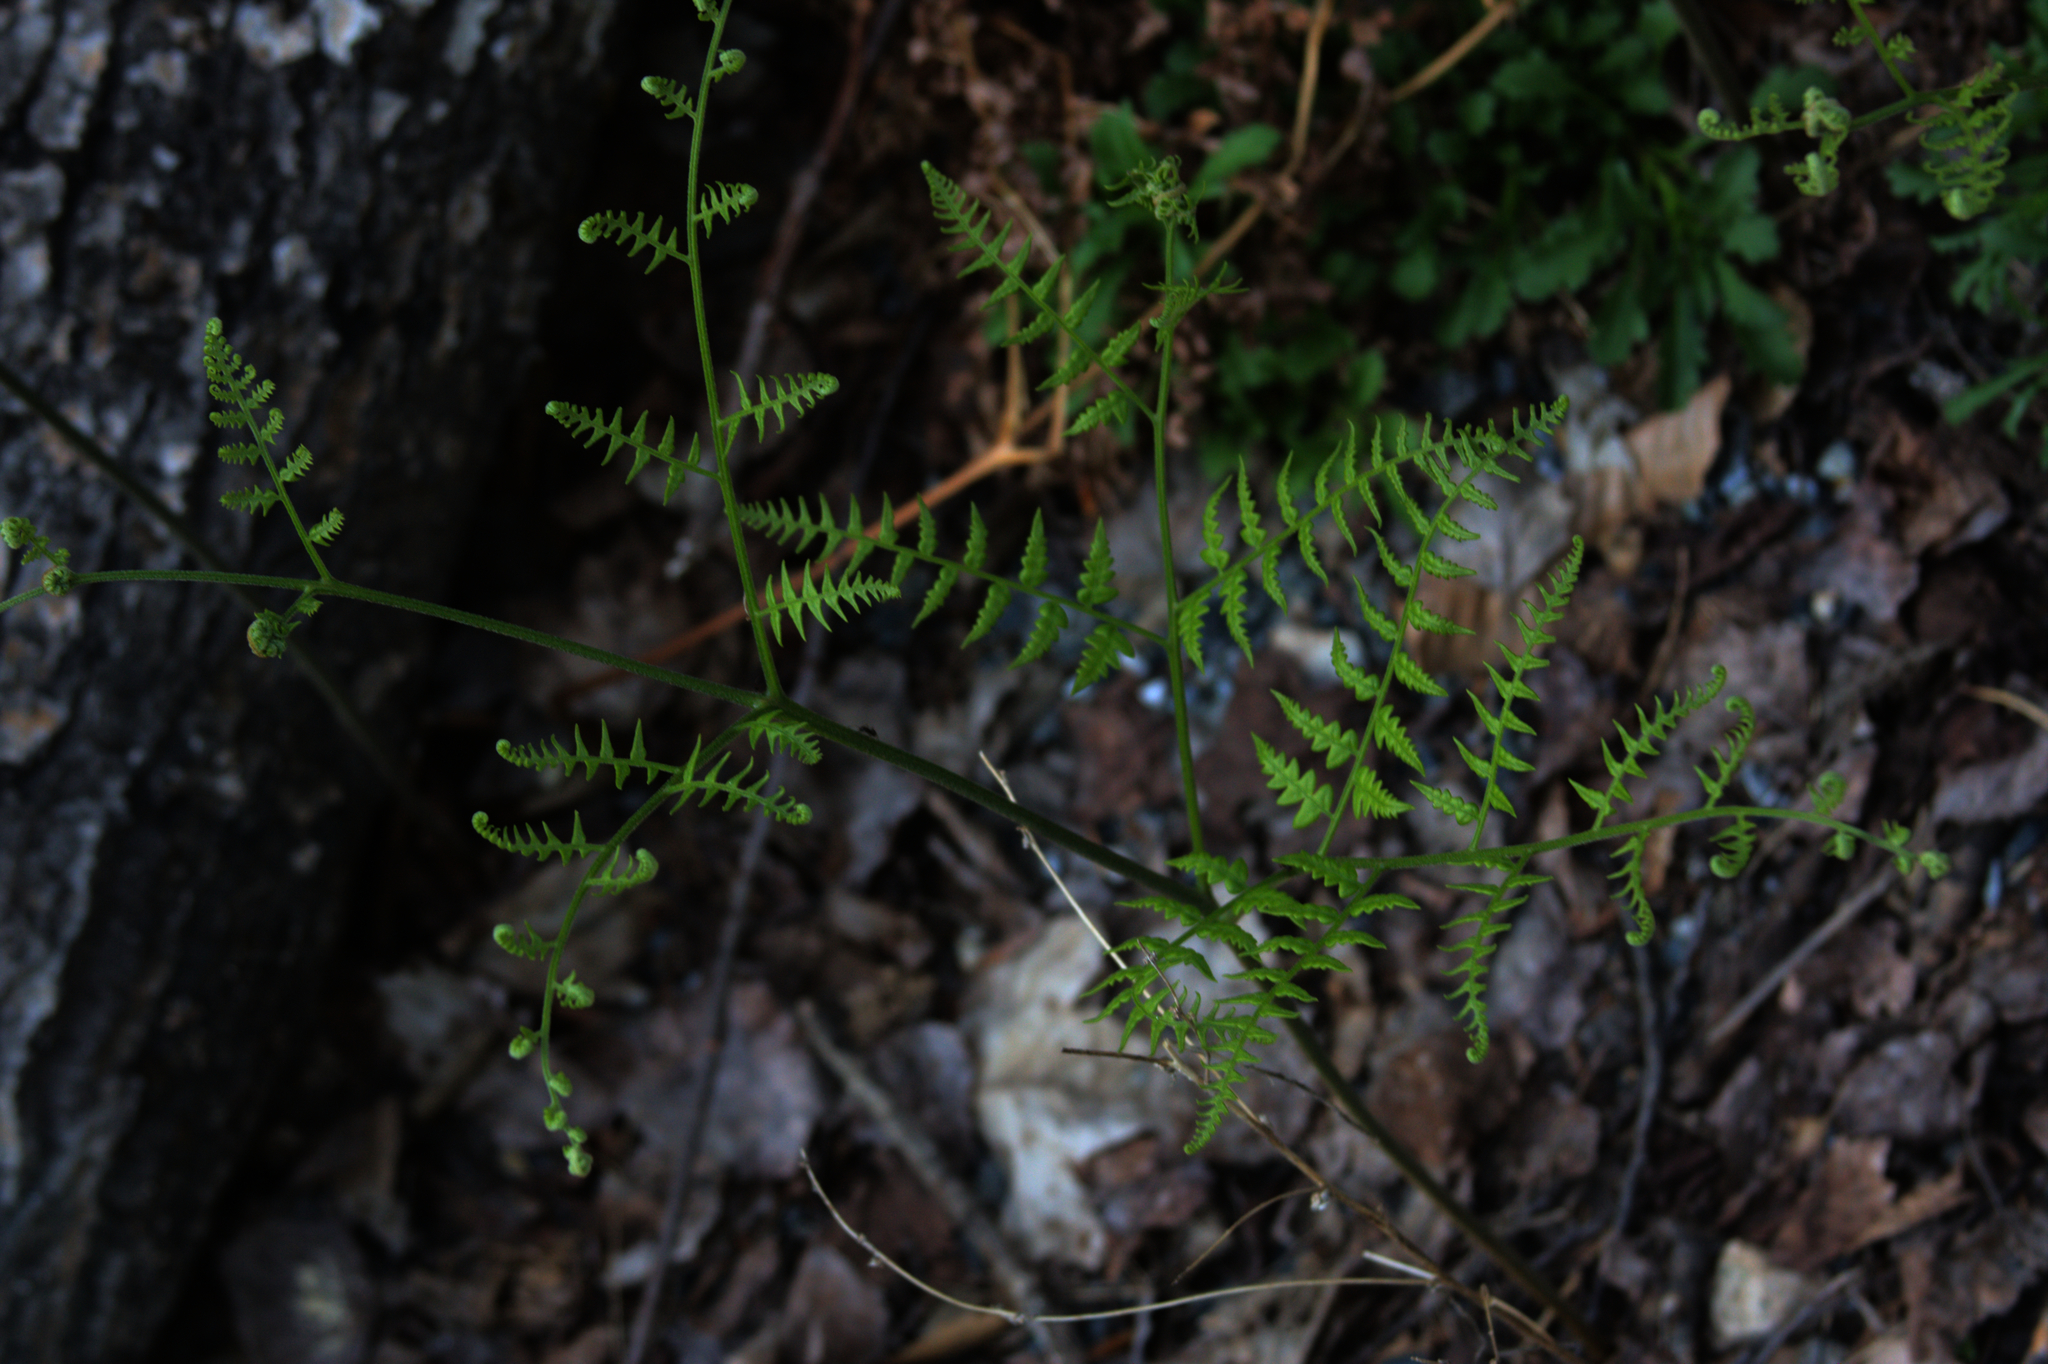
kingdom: Plantae
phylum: Tracheophyta
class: Polypodiopsida
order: Polypodiales
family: Dennstaedtiaceae
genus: Pteridium
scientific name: Pteridium aquilinum
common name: Bracken
